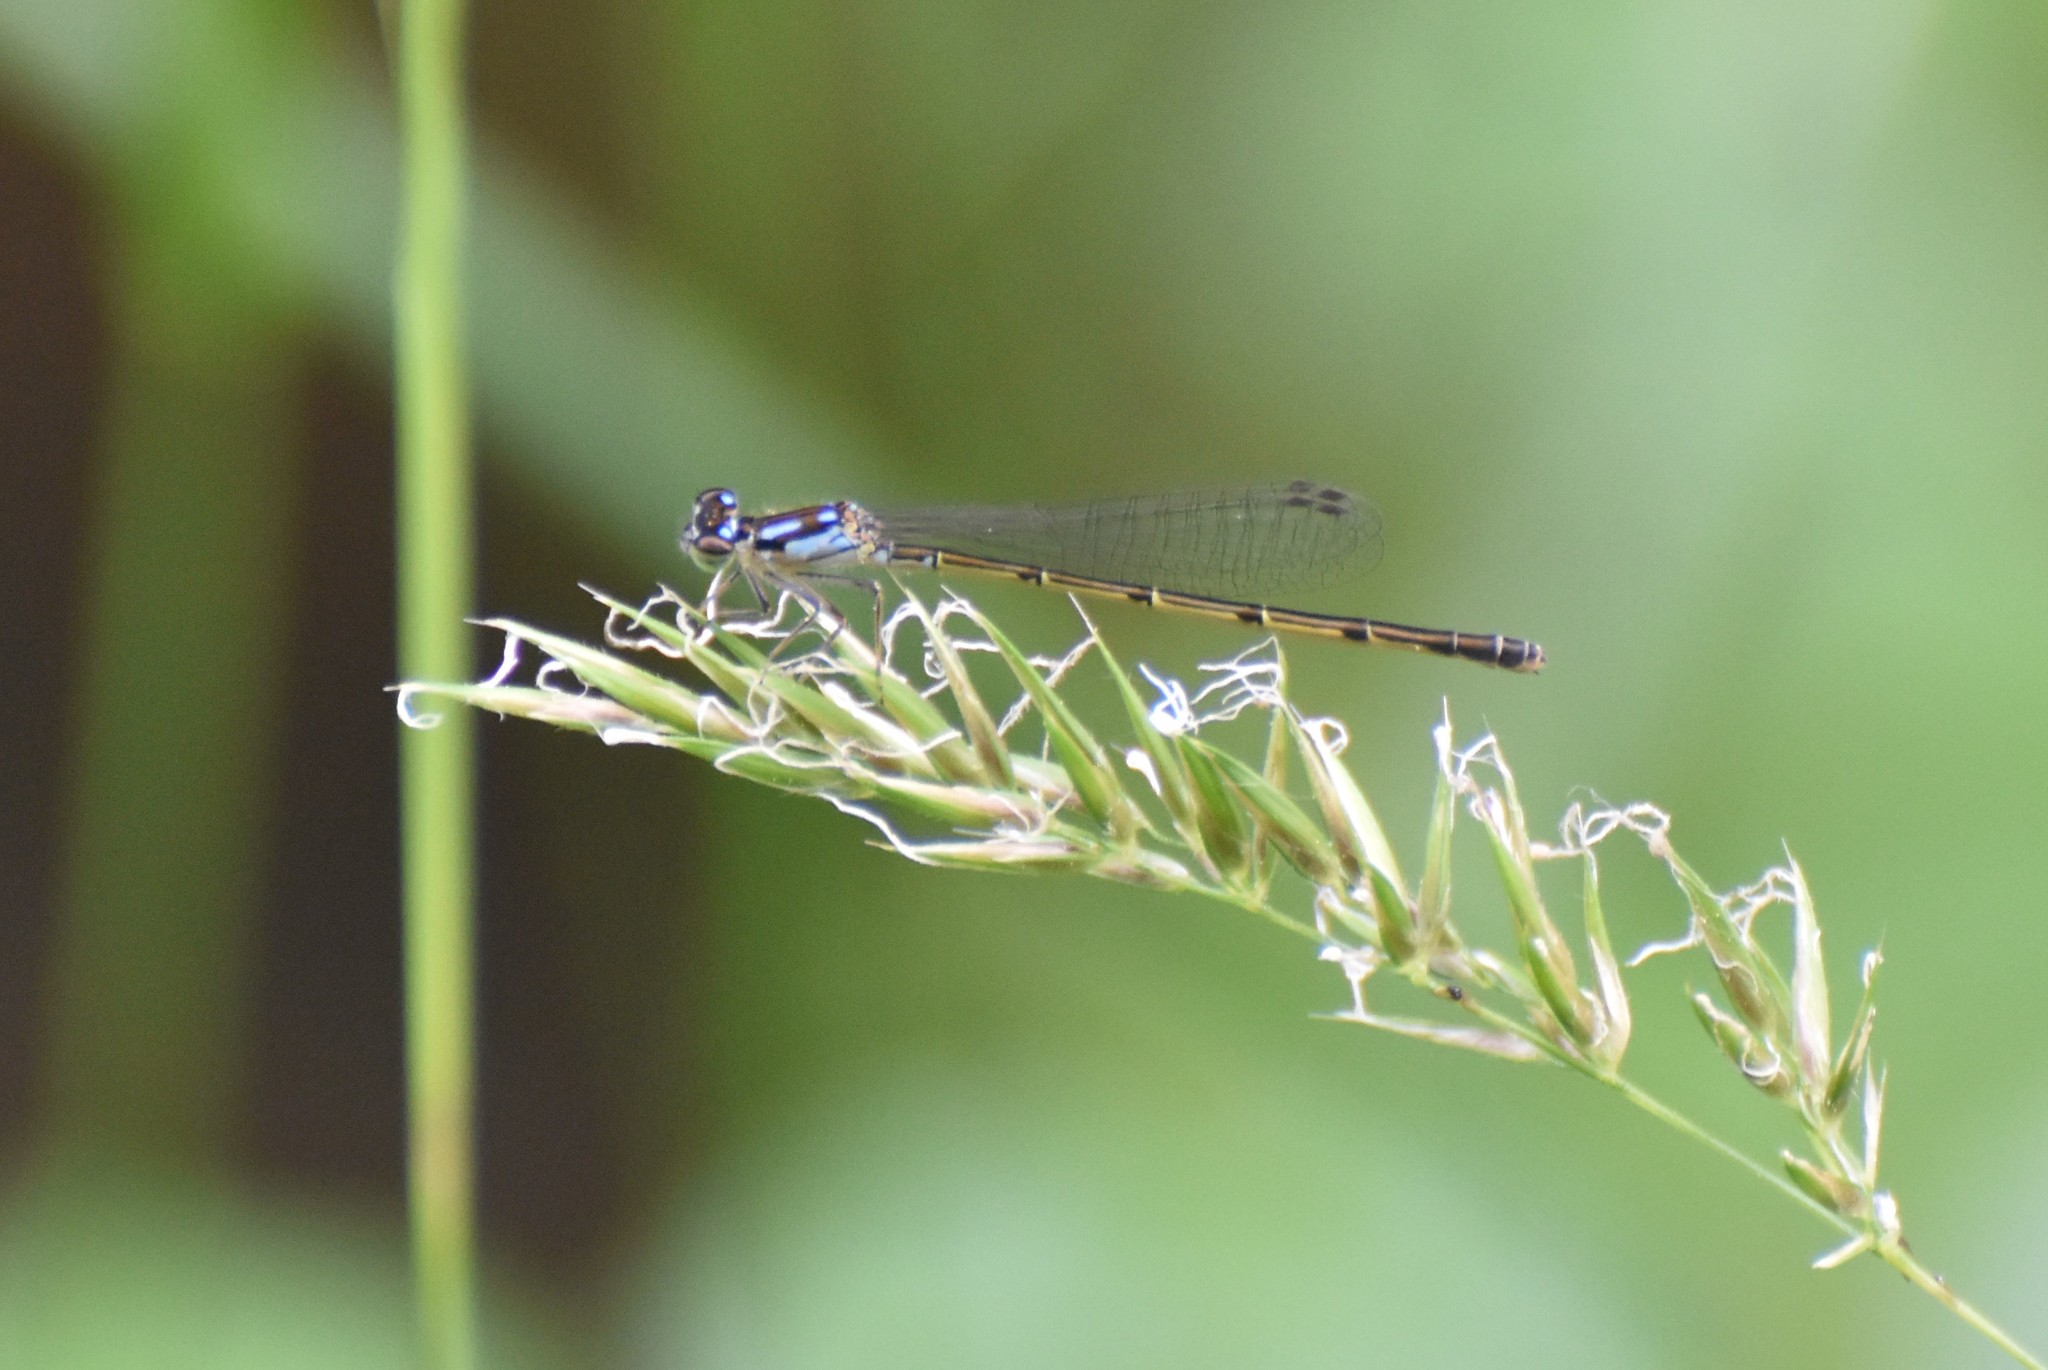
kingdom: Animalia
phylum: Arthropoda
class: Insecta
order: Odonata
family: Coenagrionidae
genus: Ischnura
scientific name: Ischnura posita
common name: Fragile forktail
